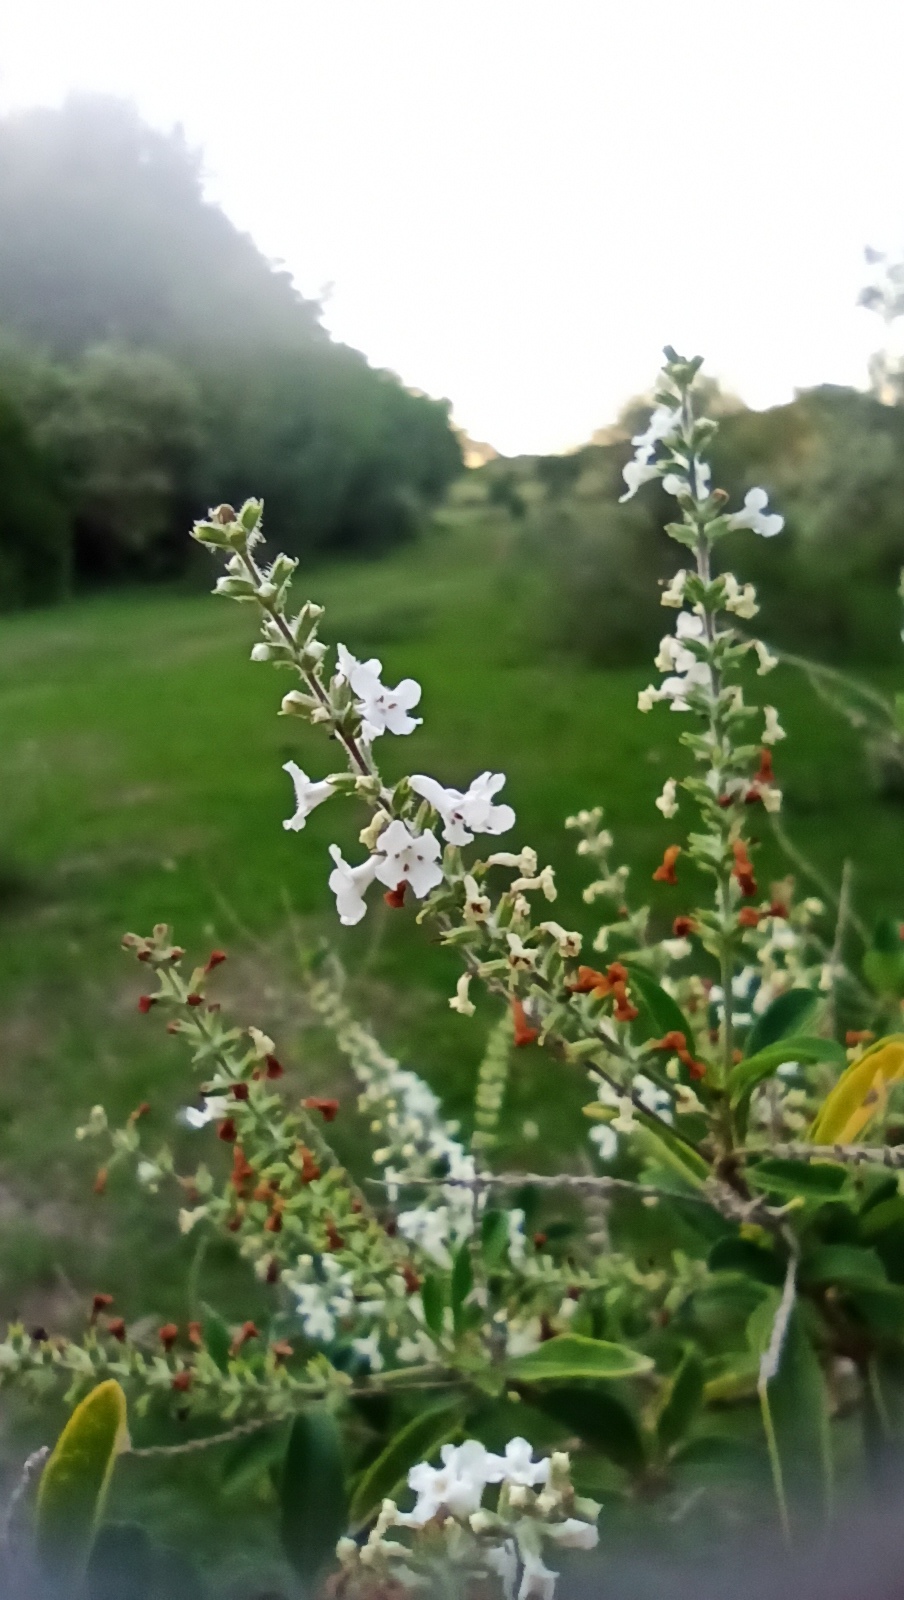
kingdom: Plantae
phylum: Tracheophyta
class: Magnoliopsida
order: Lamiales
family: Verbenaceae
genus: Aloysia
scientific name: Aloysia gratissima
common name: Common bee-brush
